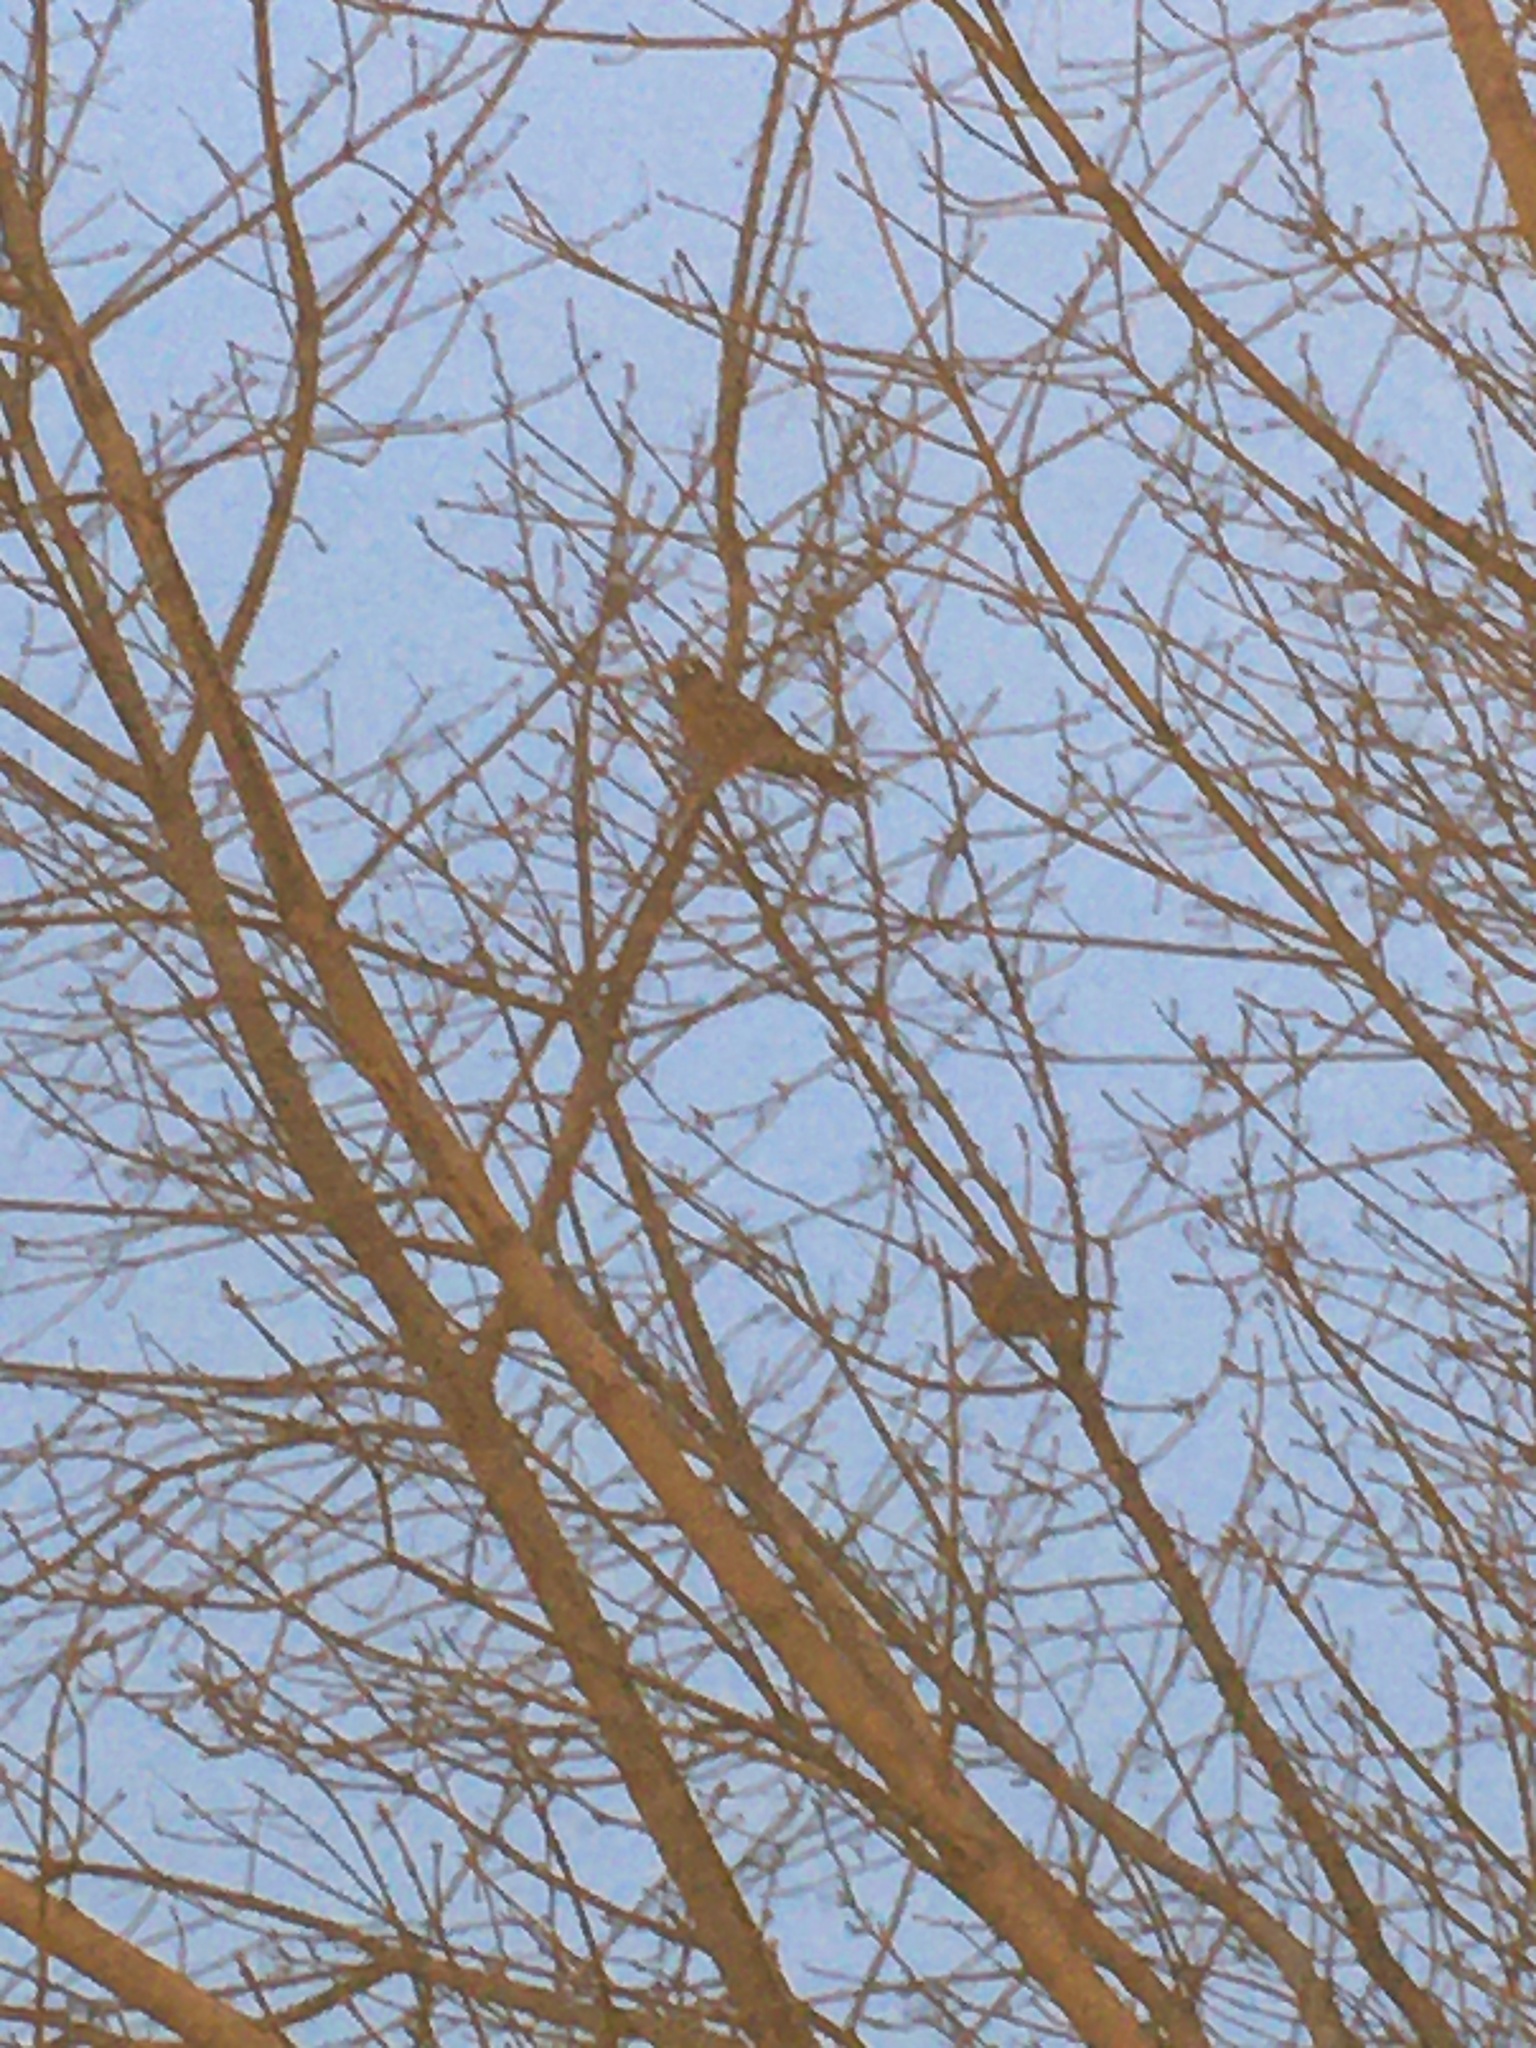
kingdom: Animalia
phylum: Chordata
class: Aves
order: Passeriformes
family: Turdidae
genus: Turdus
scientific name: Turdus migratorius
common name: American robin
